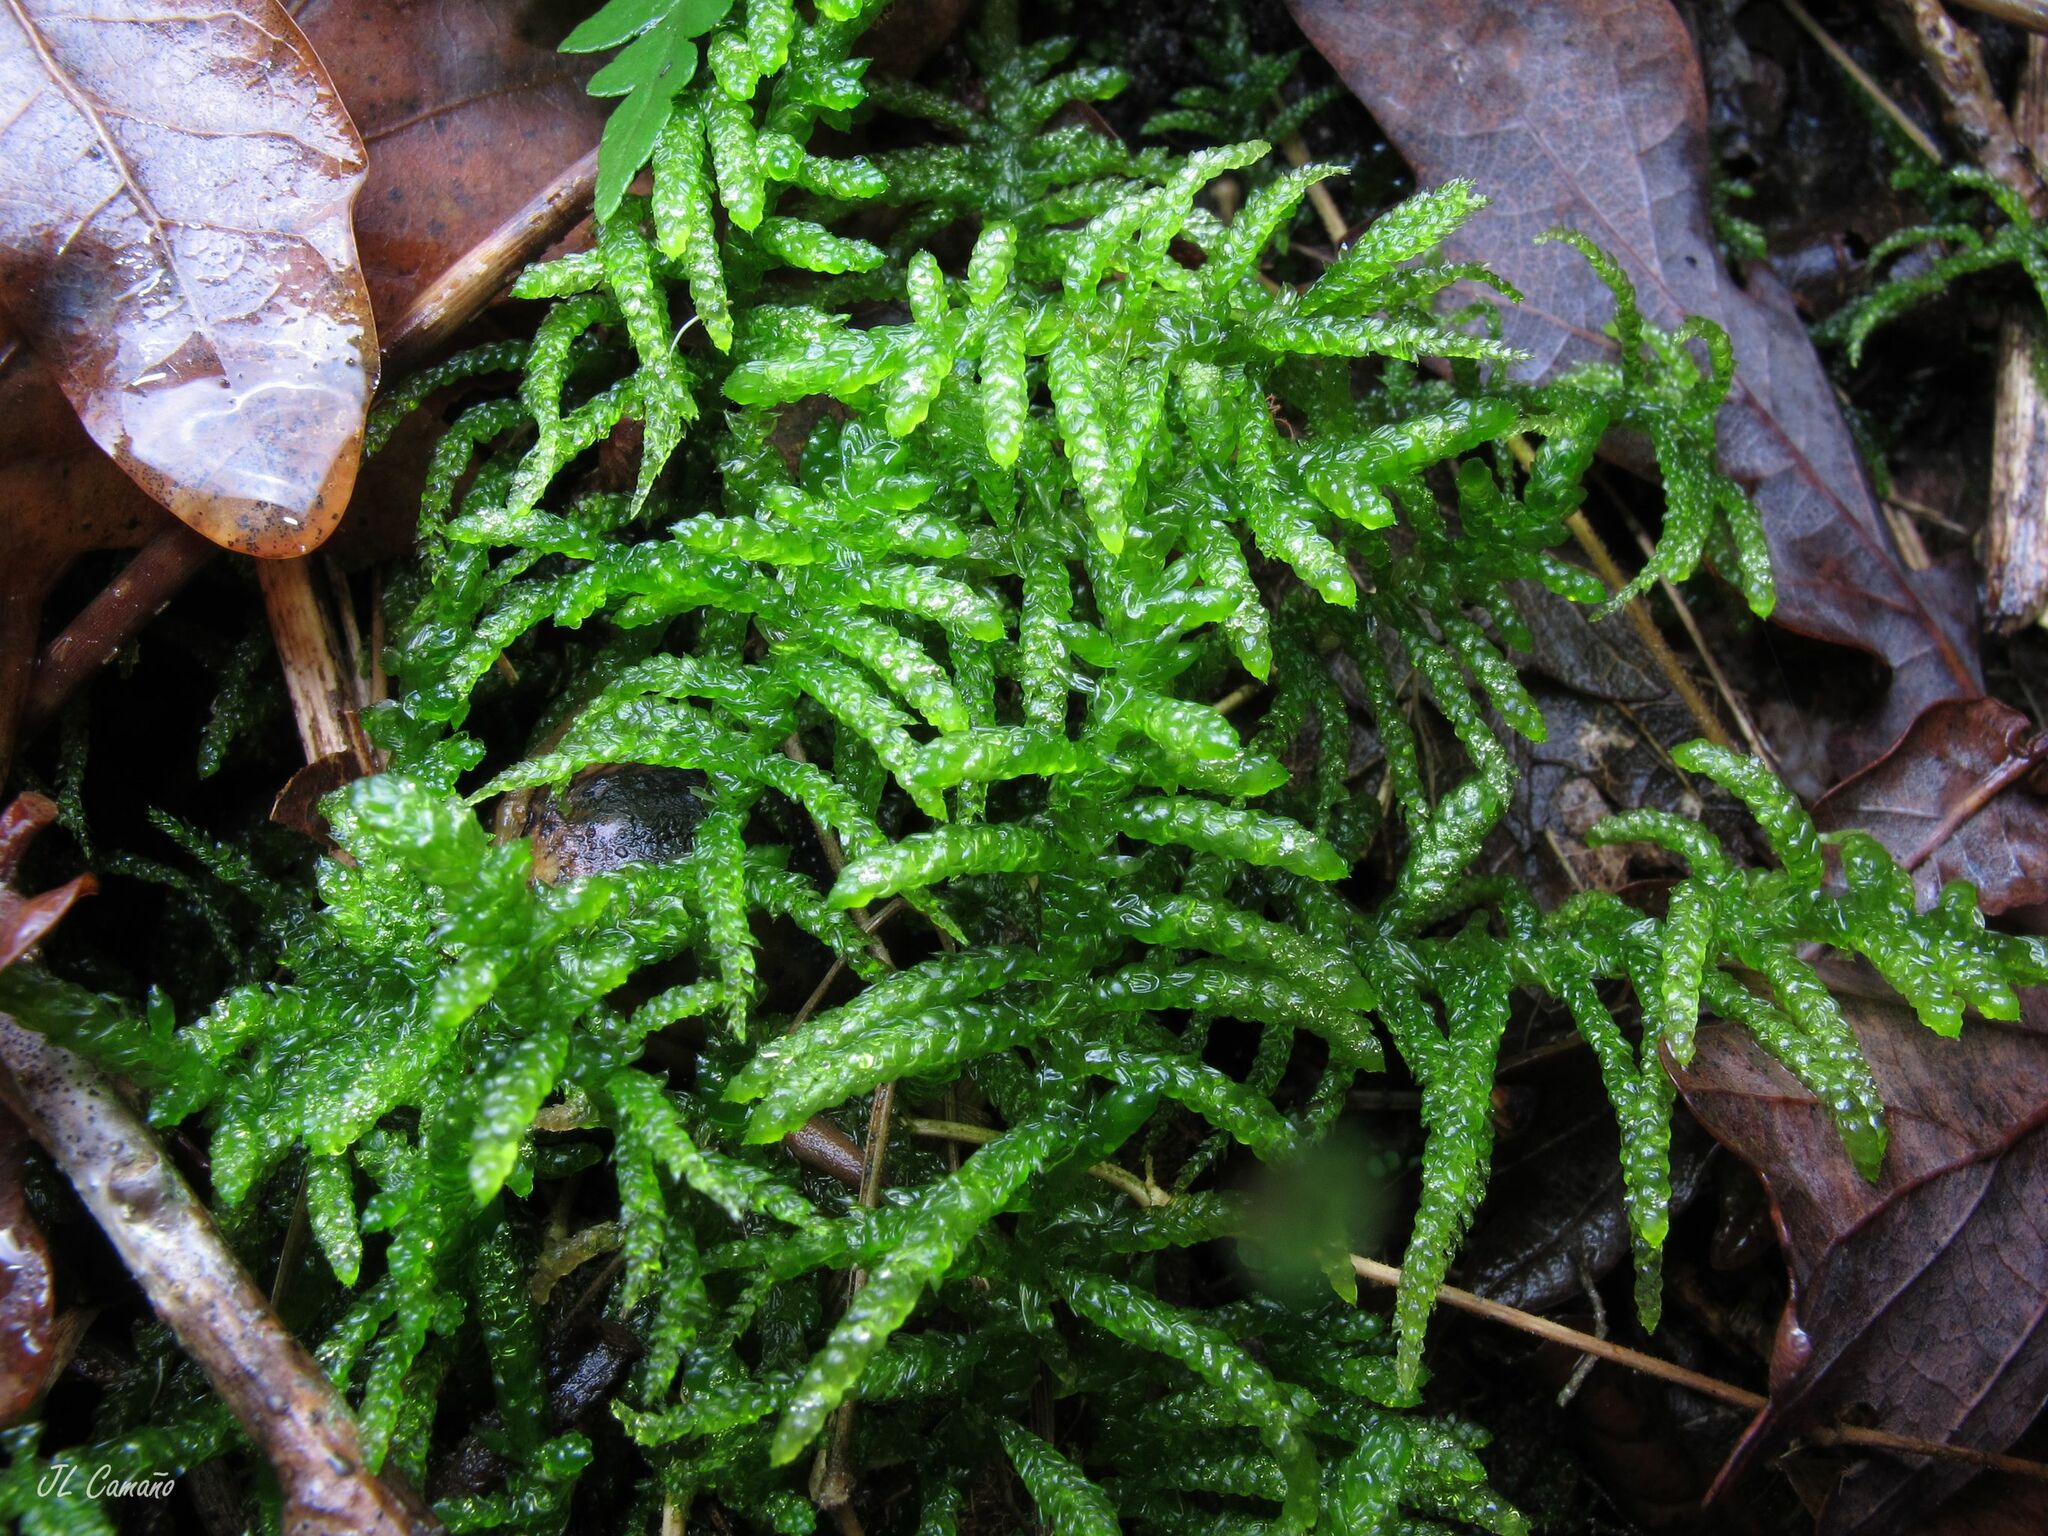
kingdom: Plantae
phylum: Bryophyta
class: Bryopsida
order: Hypnales
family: Brachytheciaceae
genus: Pseudoscleropodium
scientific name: Pseudoscleropodium purum
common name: Neat feather-moss
